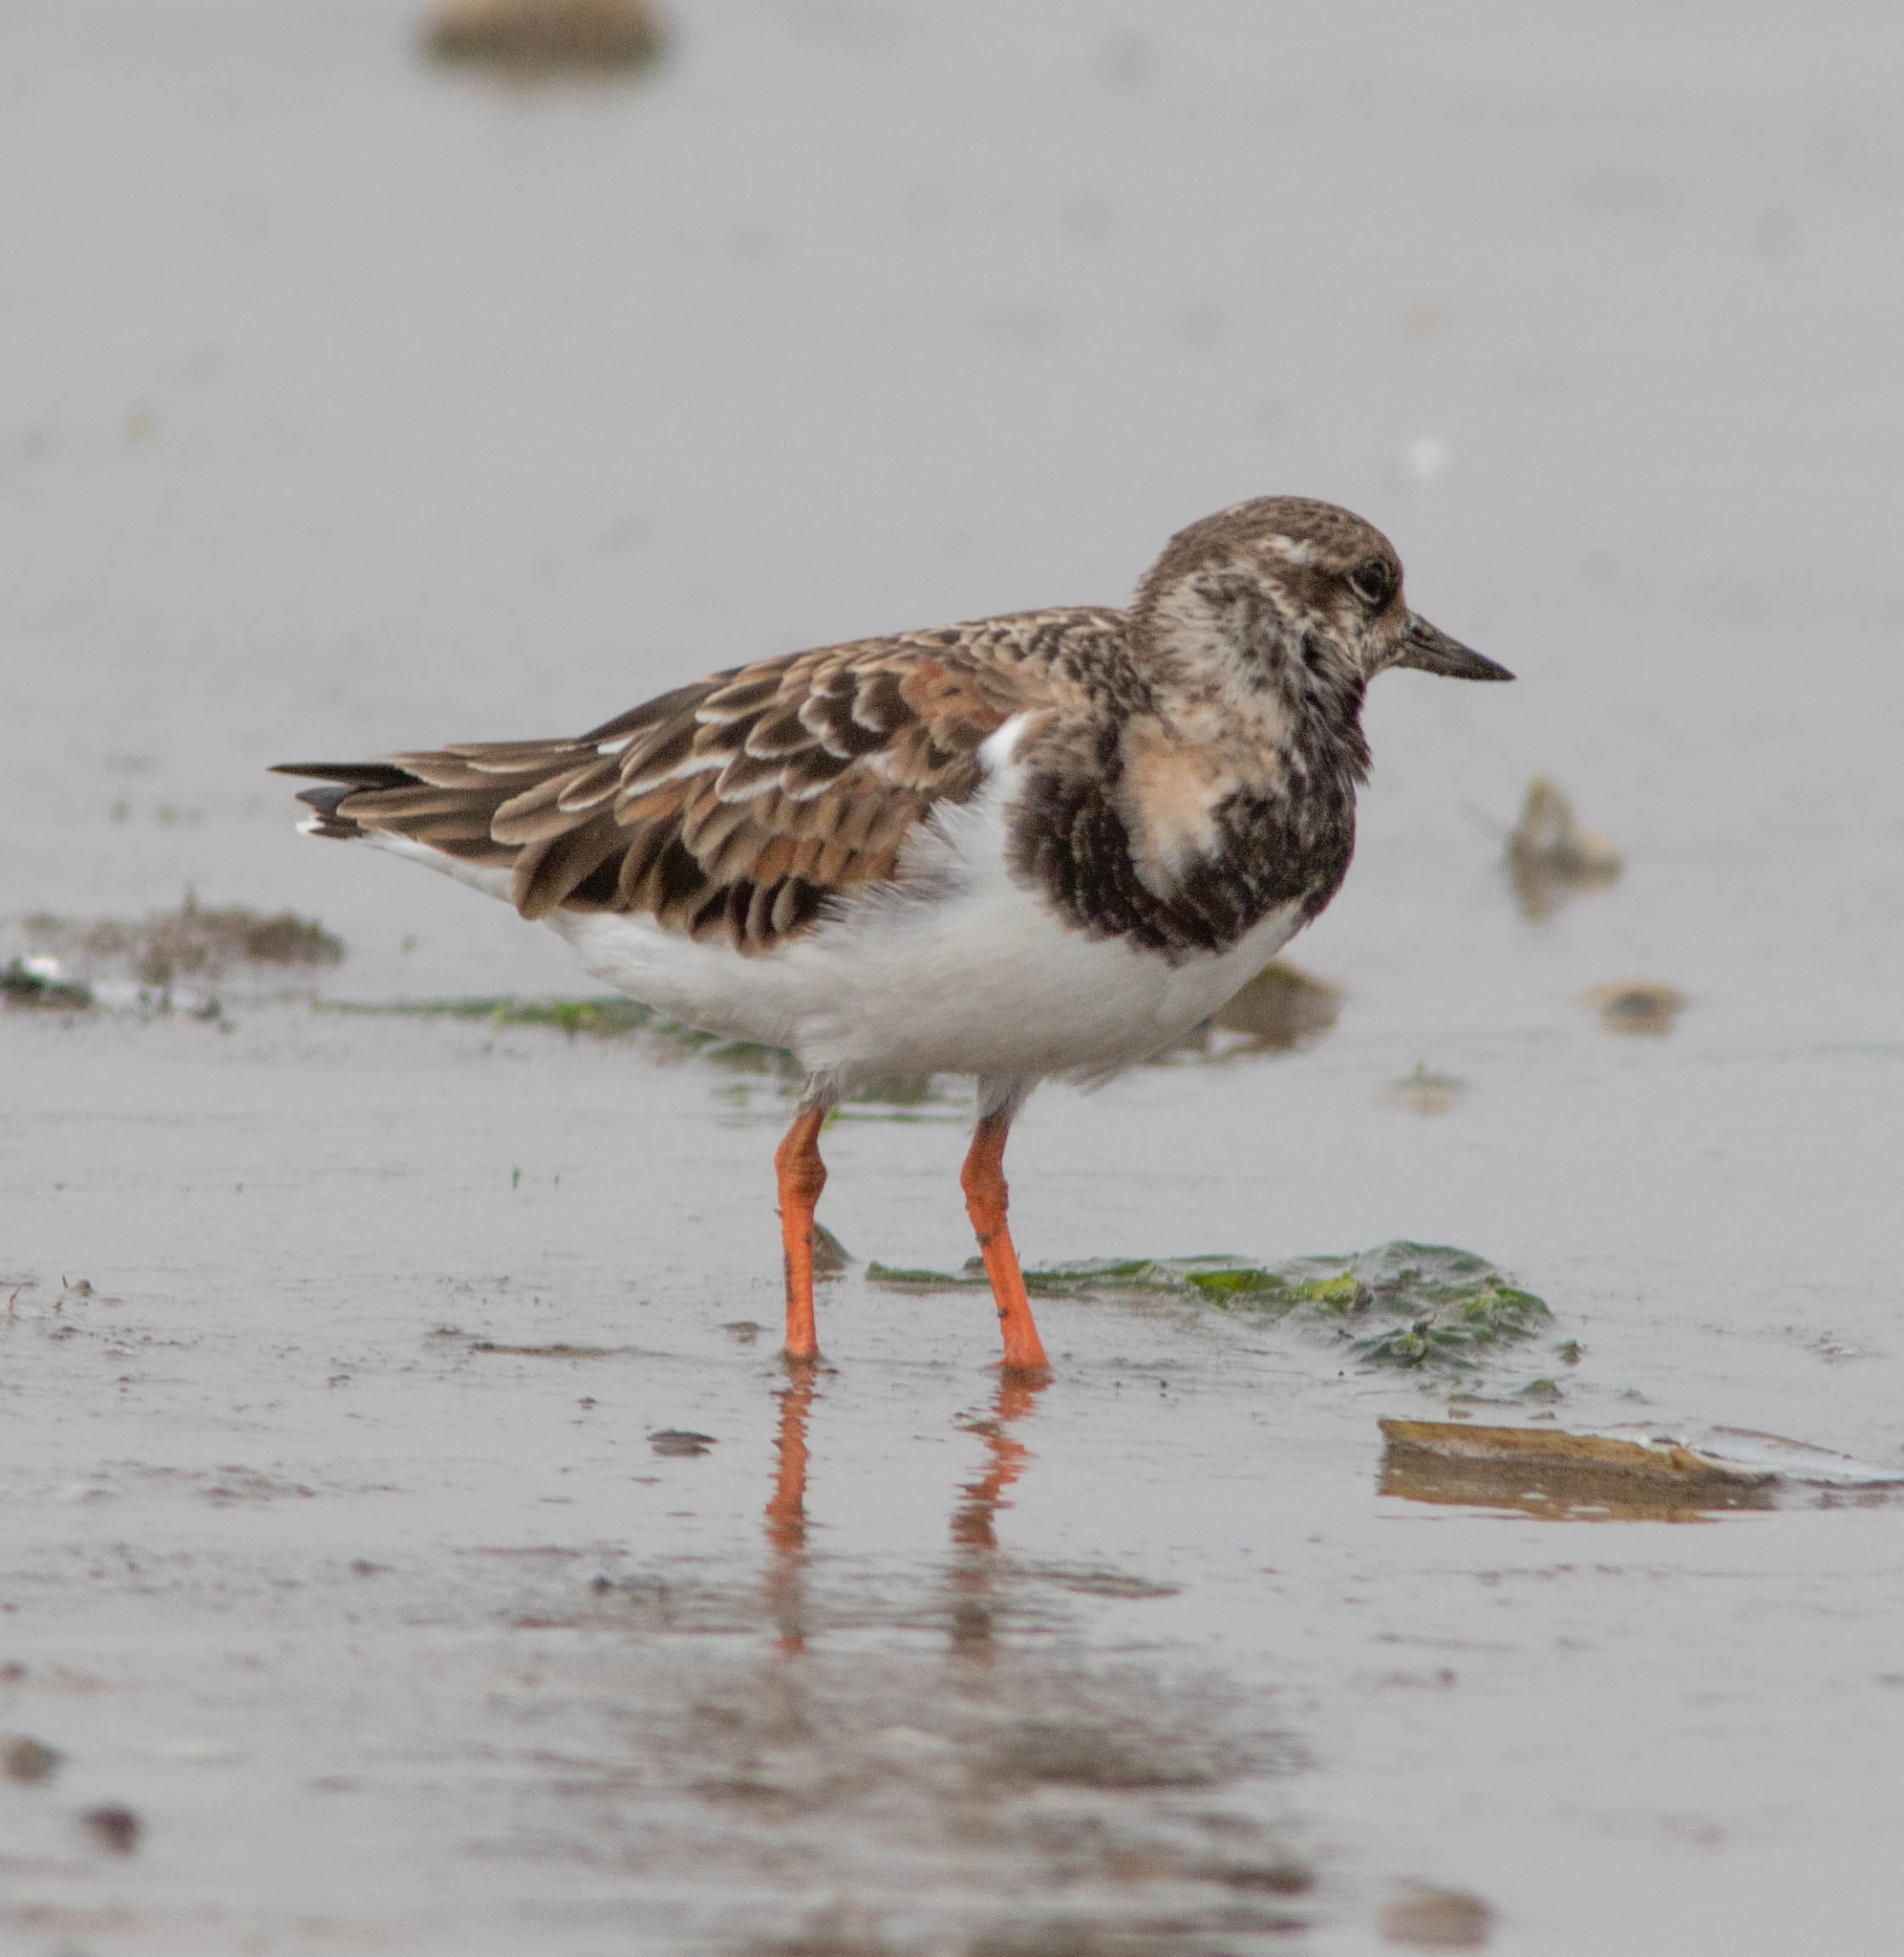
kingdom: Animalia
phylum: Chordata
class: Aves
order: Charadriiformes
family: Scolopacidae
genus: Arenaria
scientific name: Arenaria interpres
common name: Ruddy turnstone
